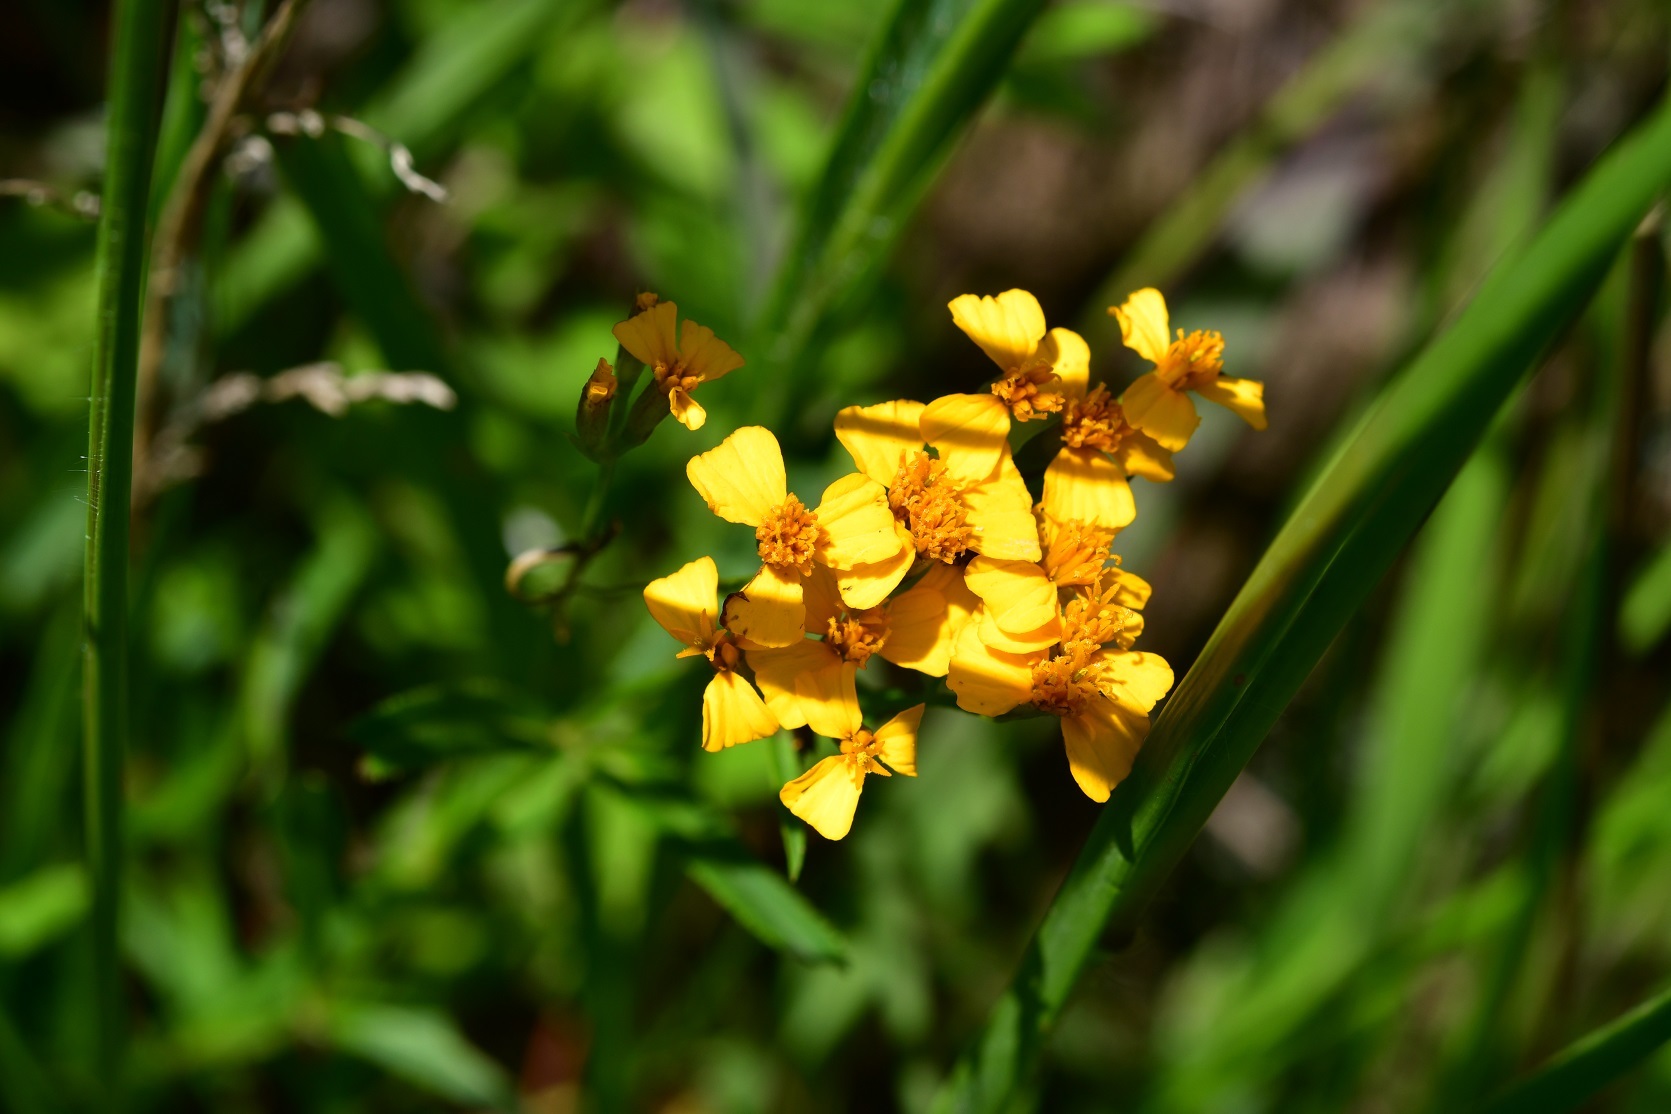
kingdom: Plantae
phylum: Tracheophyta
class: Magnoliopsida
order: Asterales
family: Asteraceae
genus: Tagetes
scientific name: Tagetes lucida
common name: Sweetscented marigold
